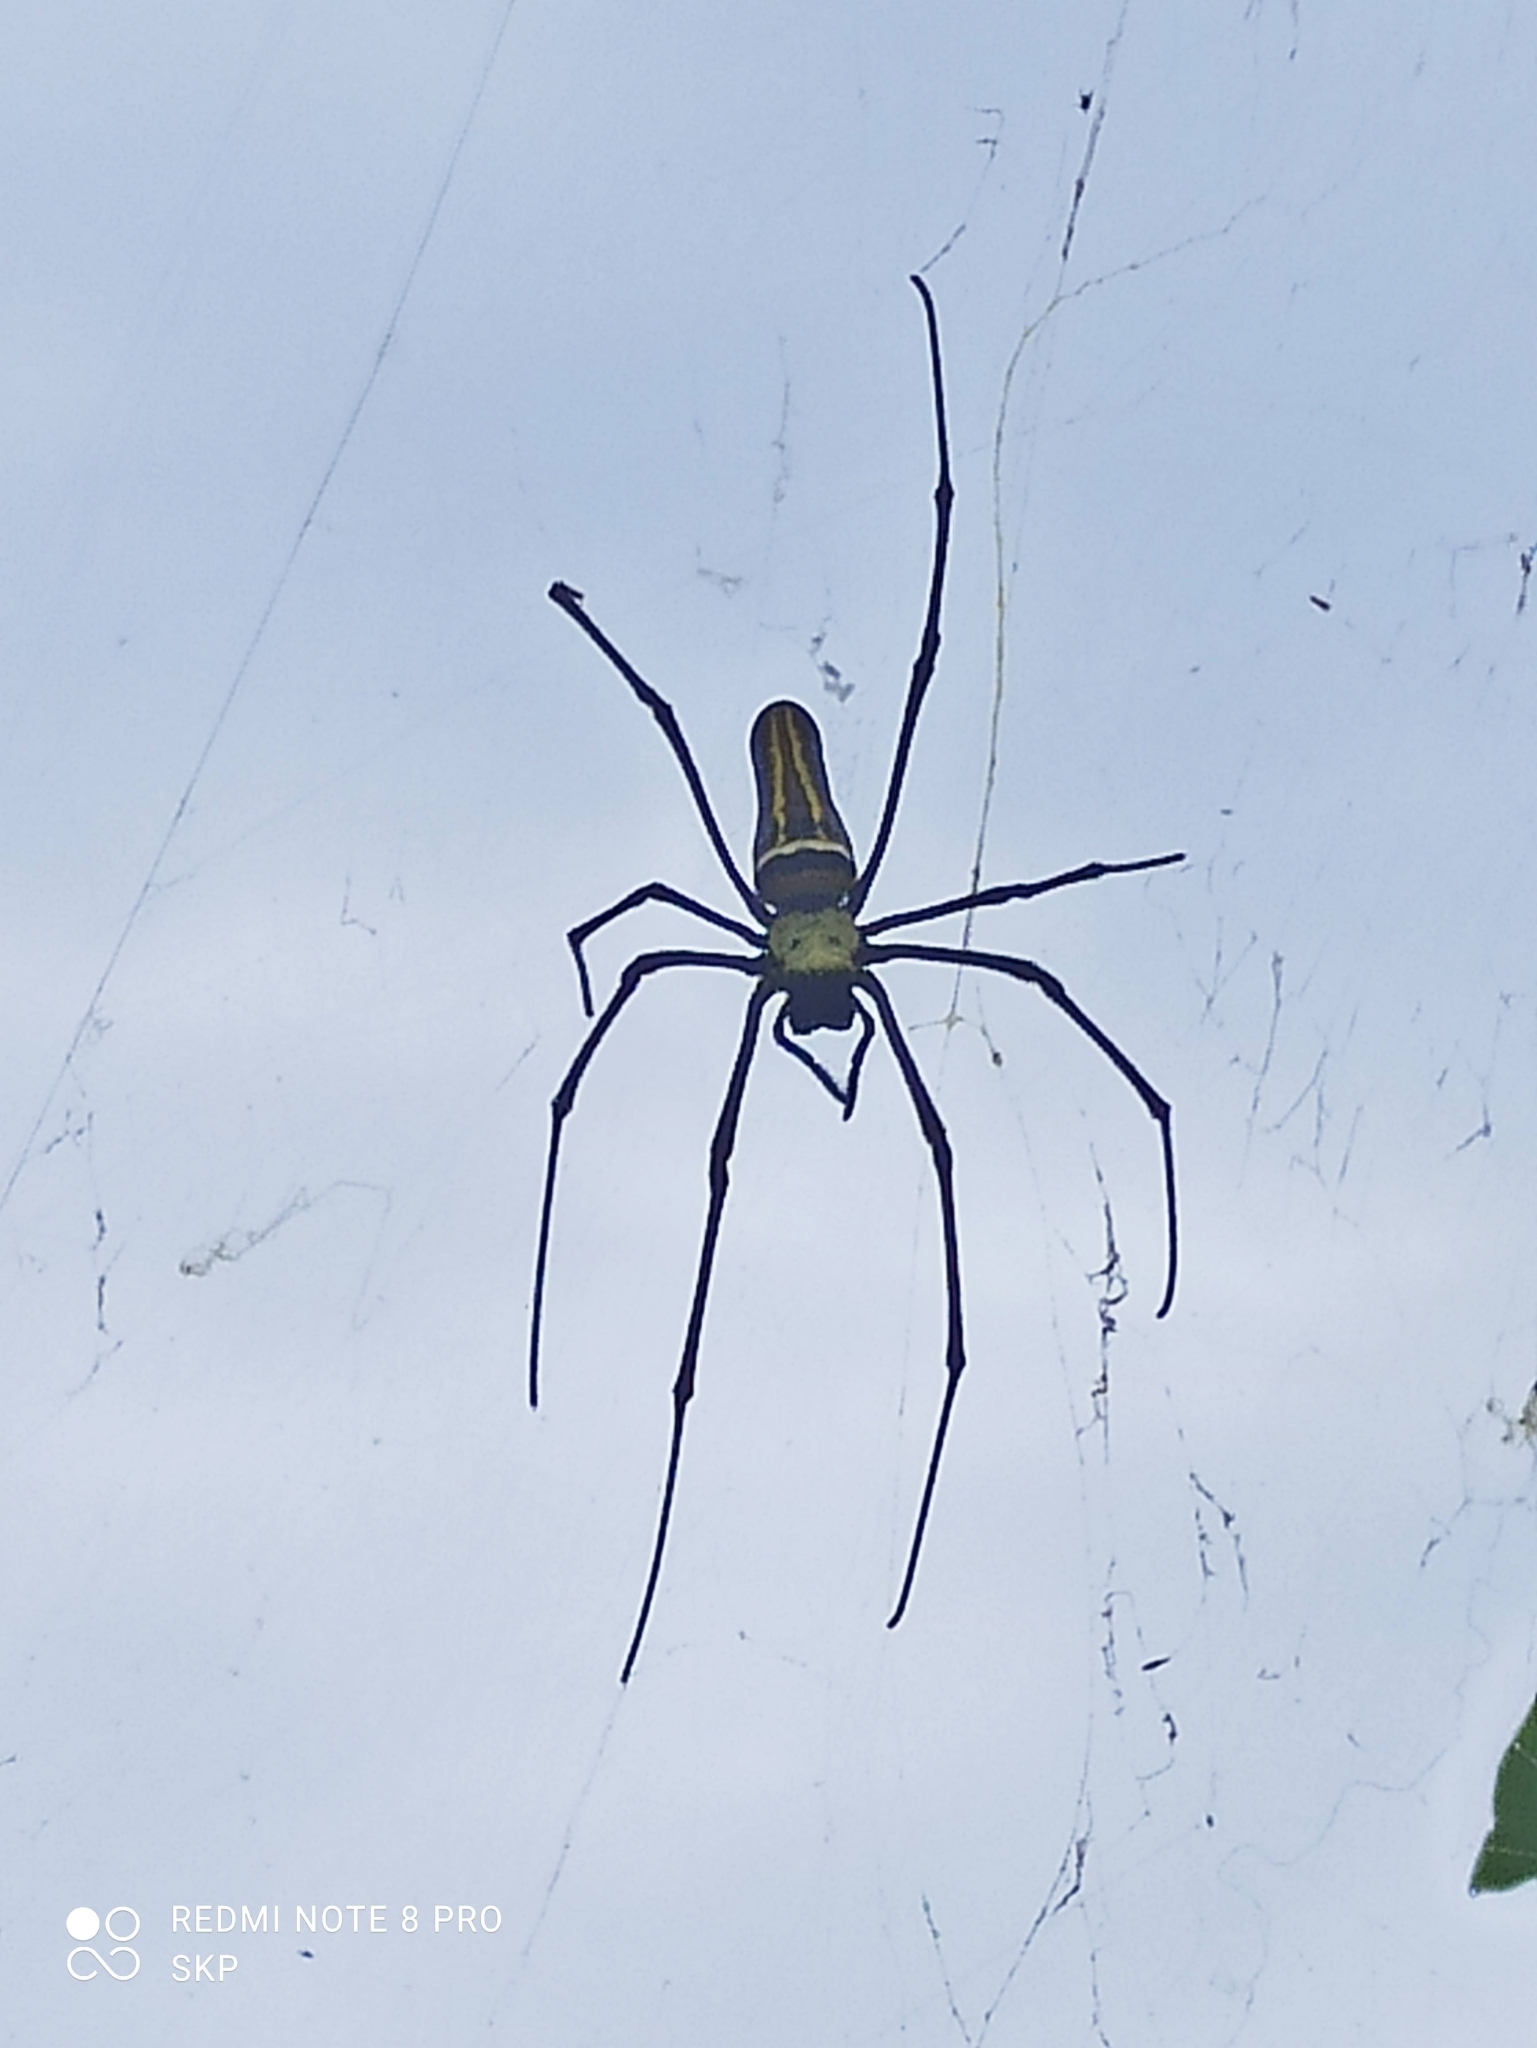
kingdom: Animalia
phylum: Arthropoda
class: Arachnida
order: Araneae
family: Araneidae
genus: Nephila
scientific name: Nephila pilipes
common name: Giant golden orb weaver
